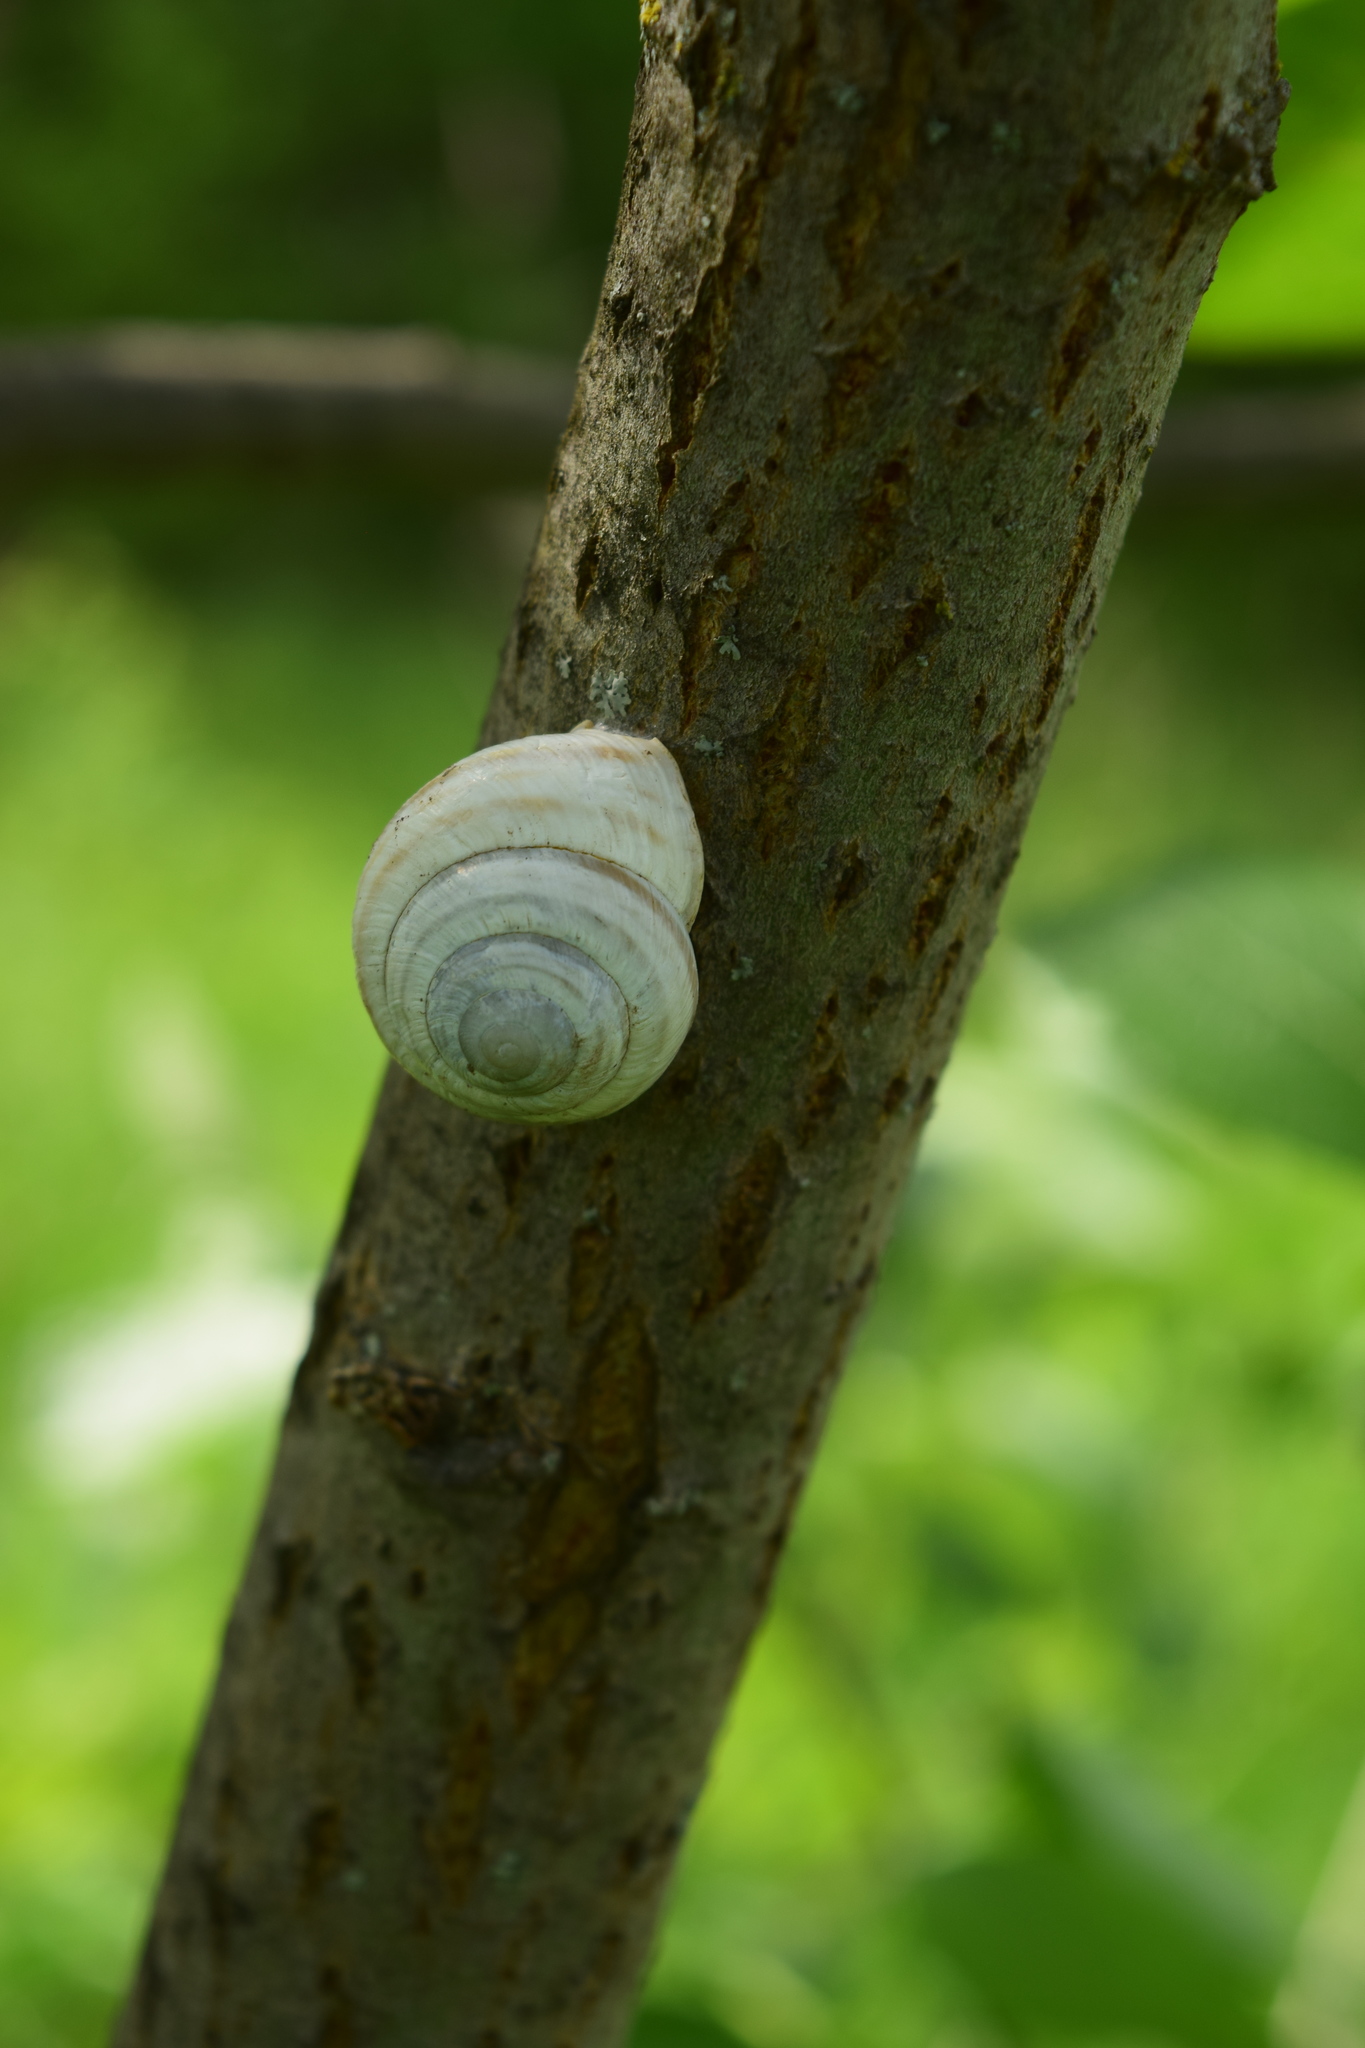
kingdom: Animalia
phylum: Mollusca
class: Gastropoda
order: Stylommatophora
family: Helicidae
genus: Caucasotachea
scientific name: Caucasotachea vindobonensis
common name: European helicid land snail
